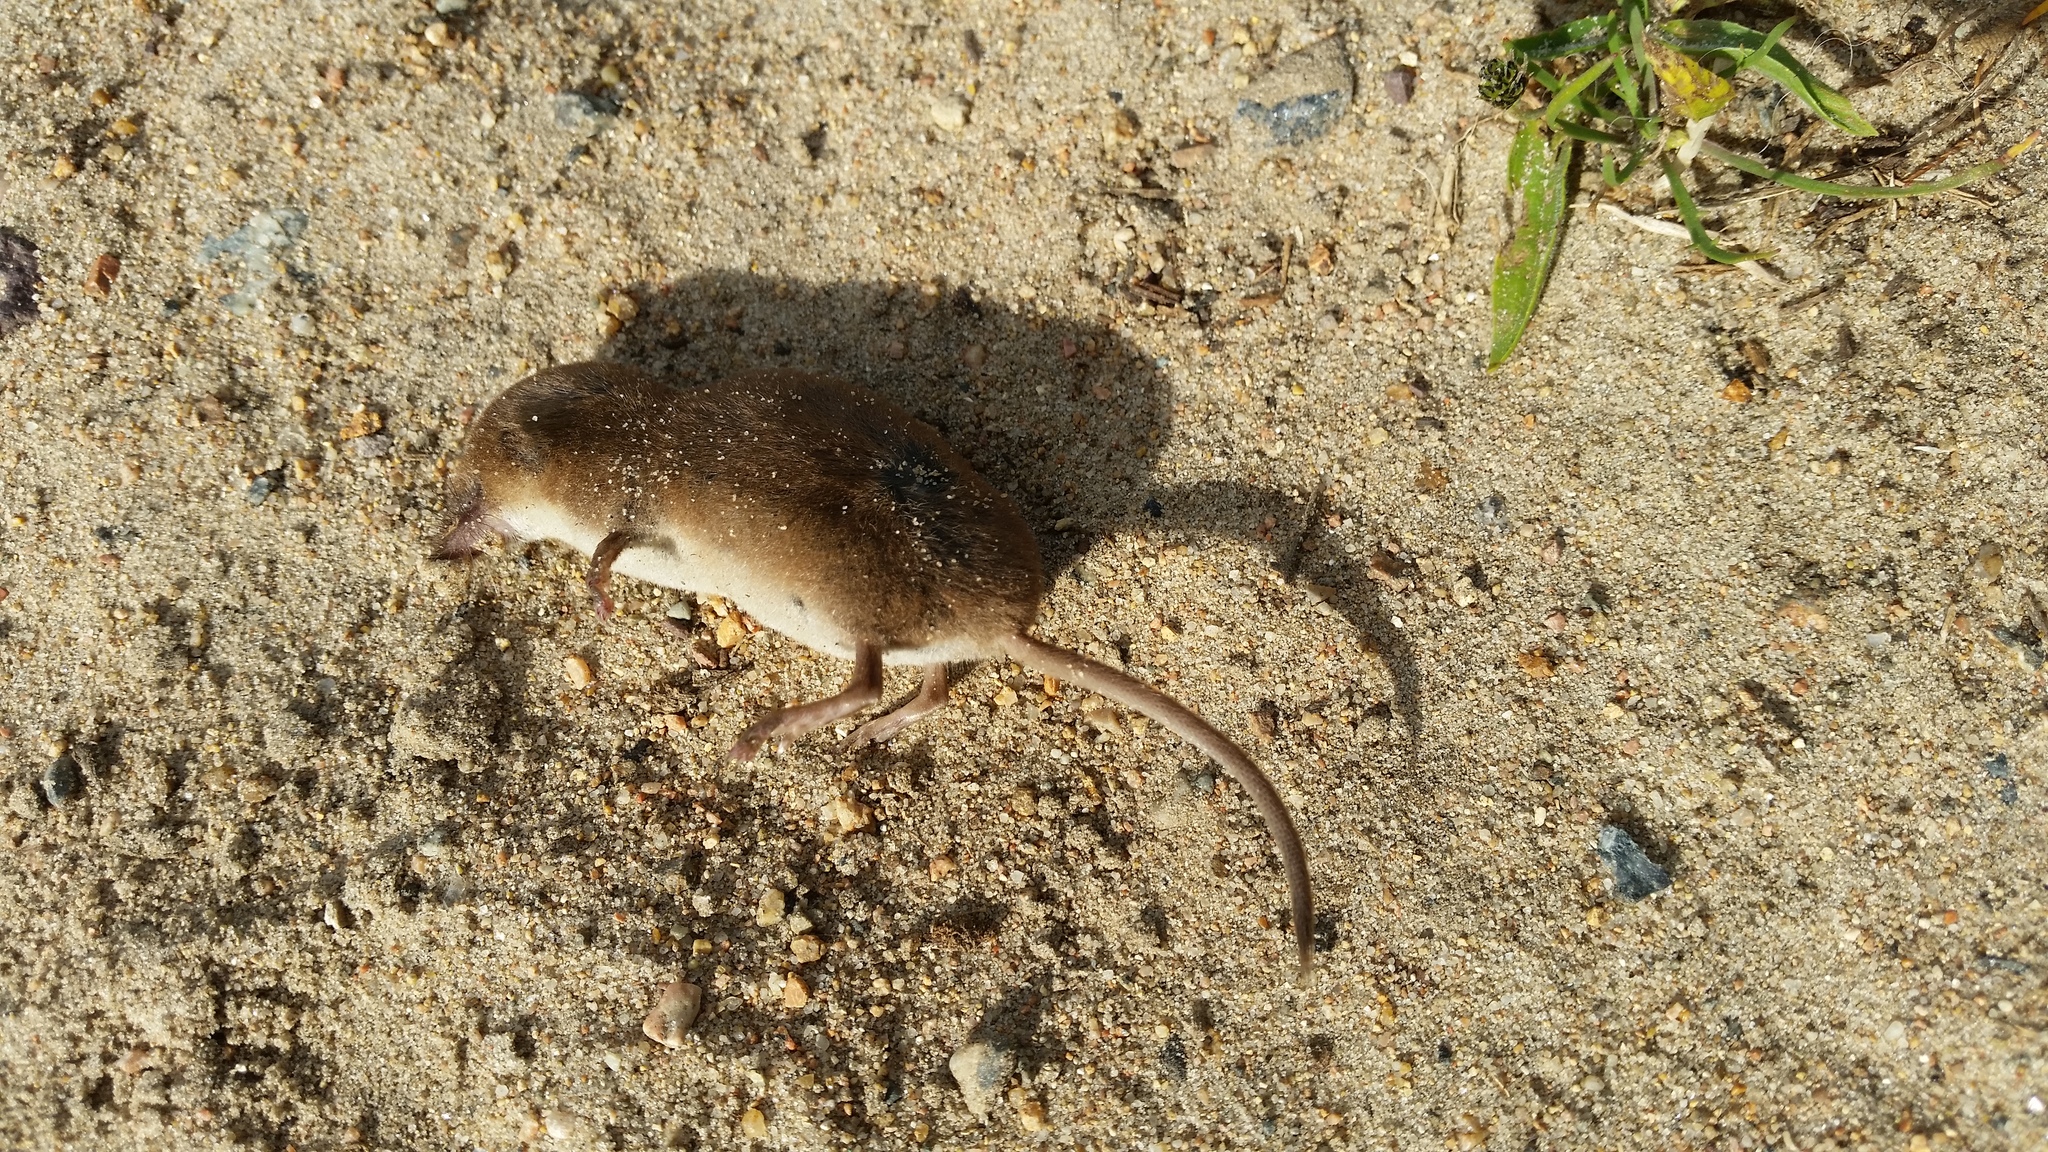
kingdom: Animalia
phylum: Chordata
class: Mammalia
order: Soricomorpha
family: Soricidae
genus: Sorex
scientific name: Sorex coronatus
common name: Millet's shrew
